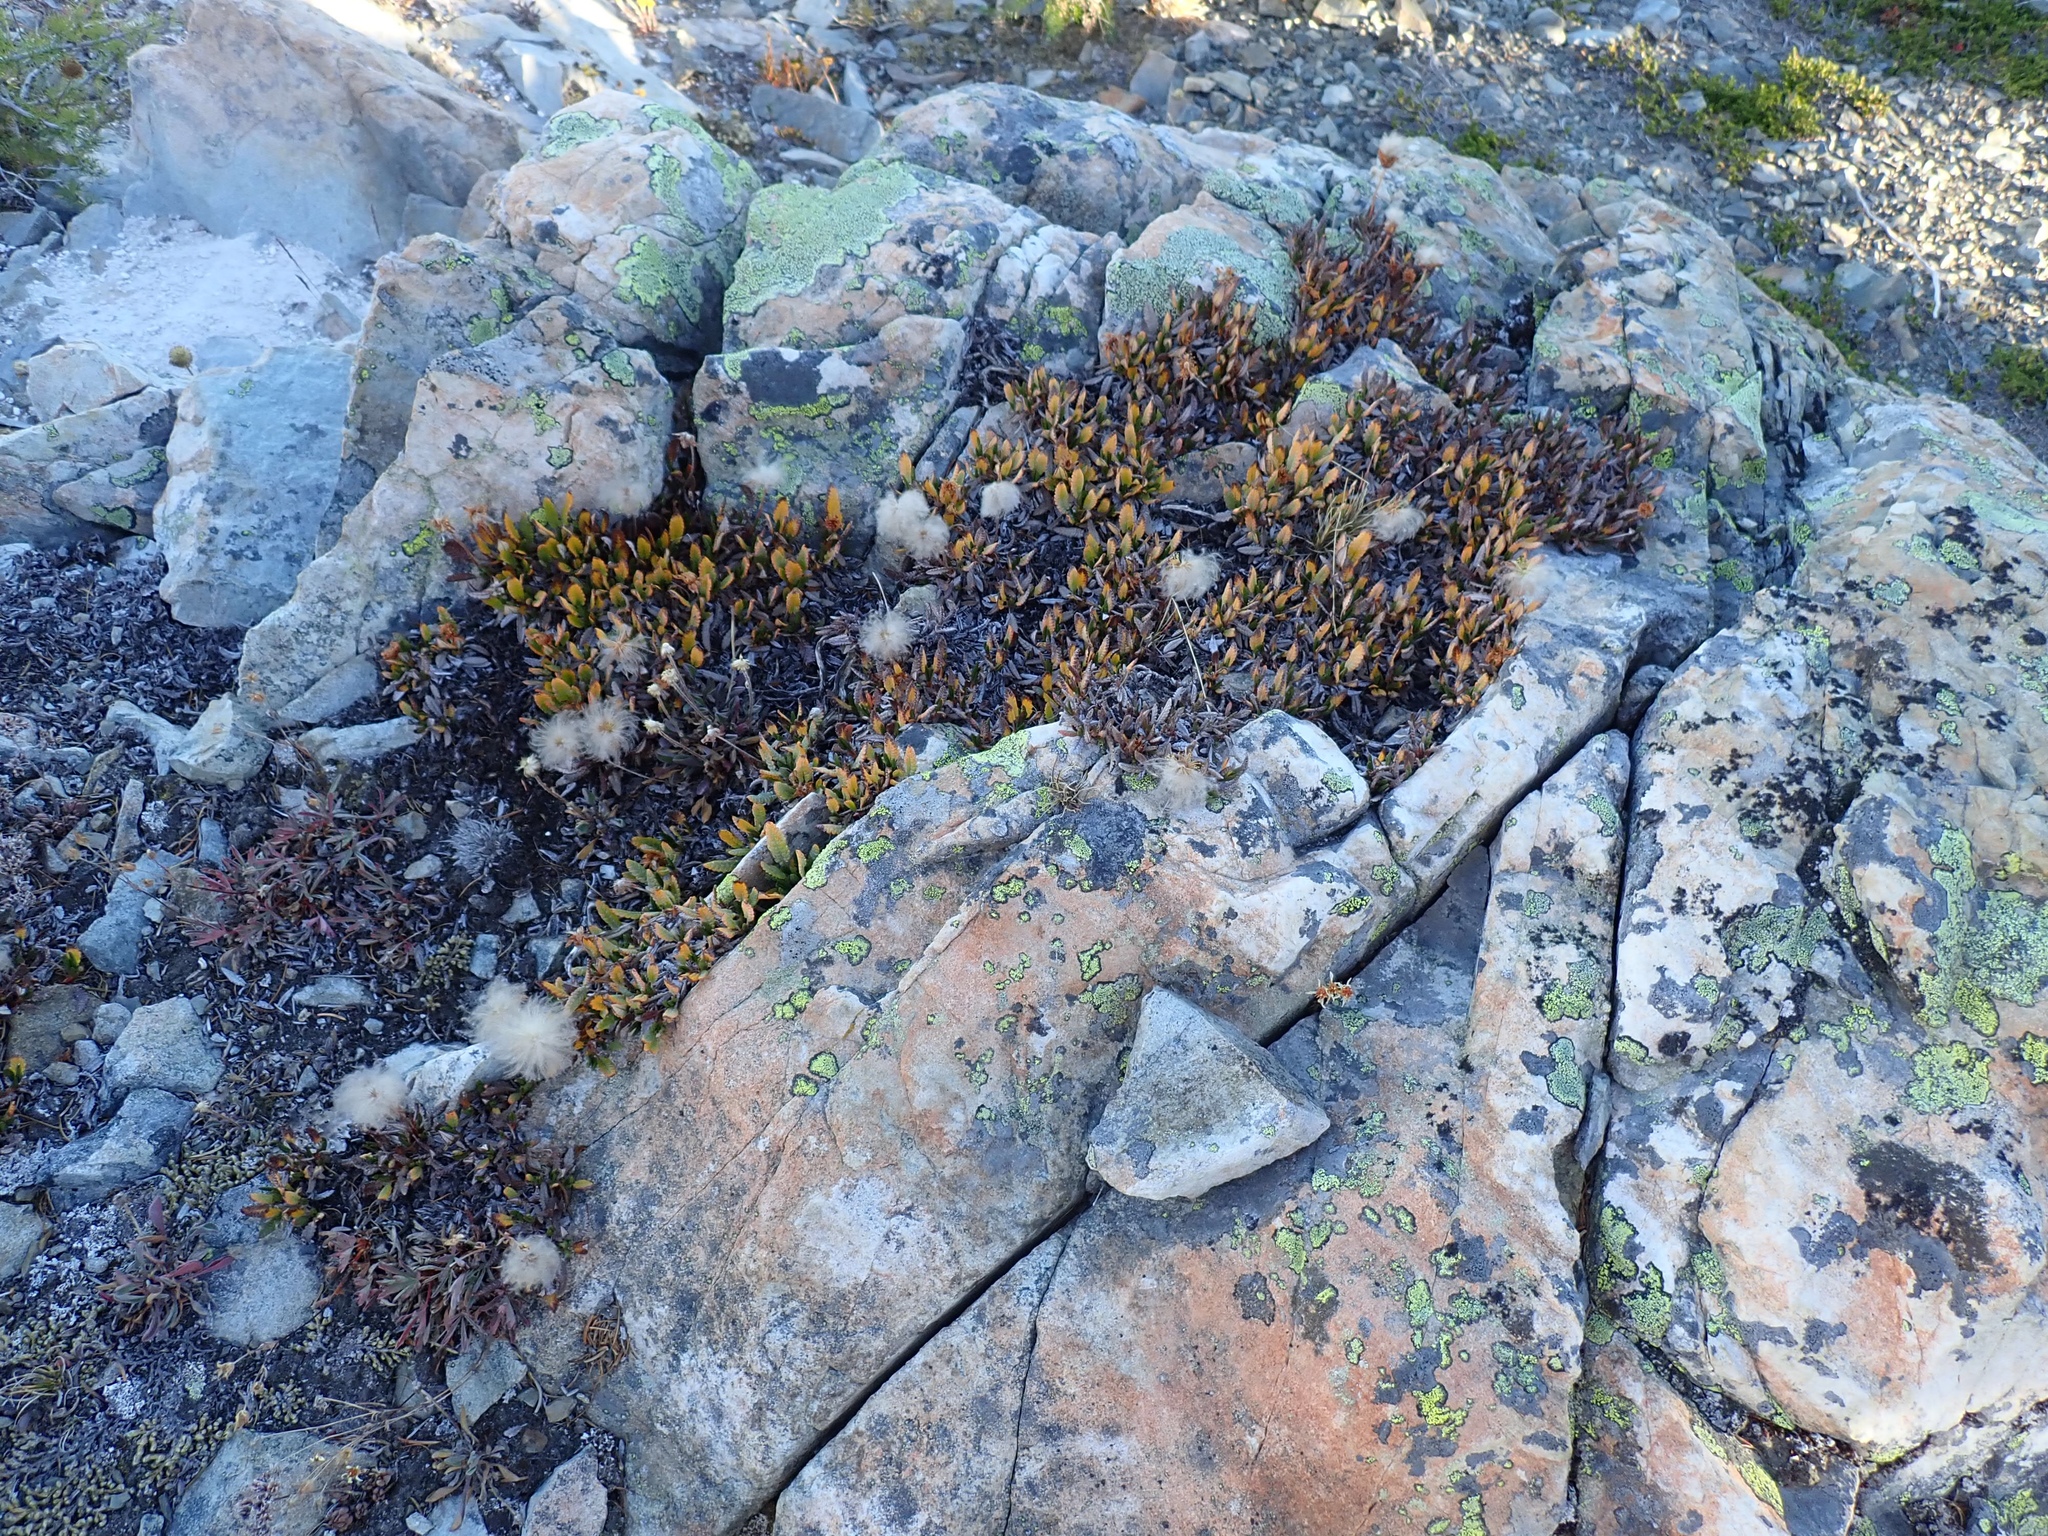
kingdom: Plantae
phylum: Tracheophyta
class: Magnoliopsida
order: Rosales
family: Rosaceae
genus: Dryas
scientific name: Dryas octopetala
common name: Eight-petal mountain-avens
